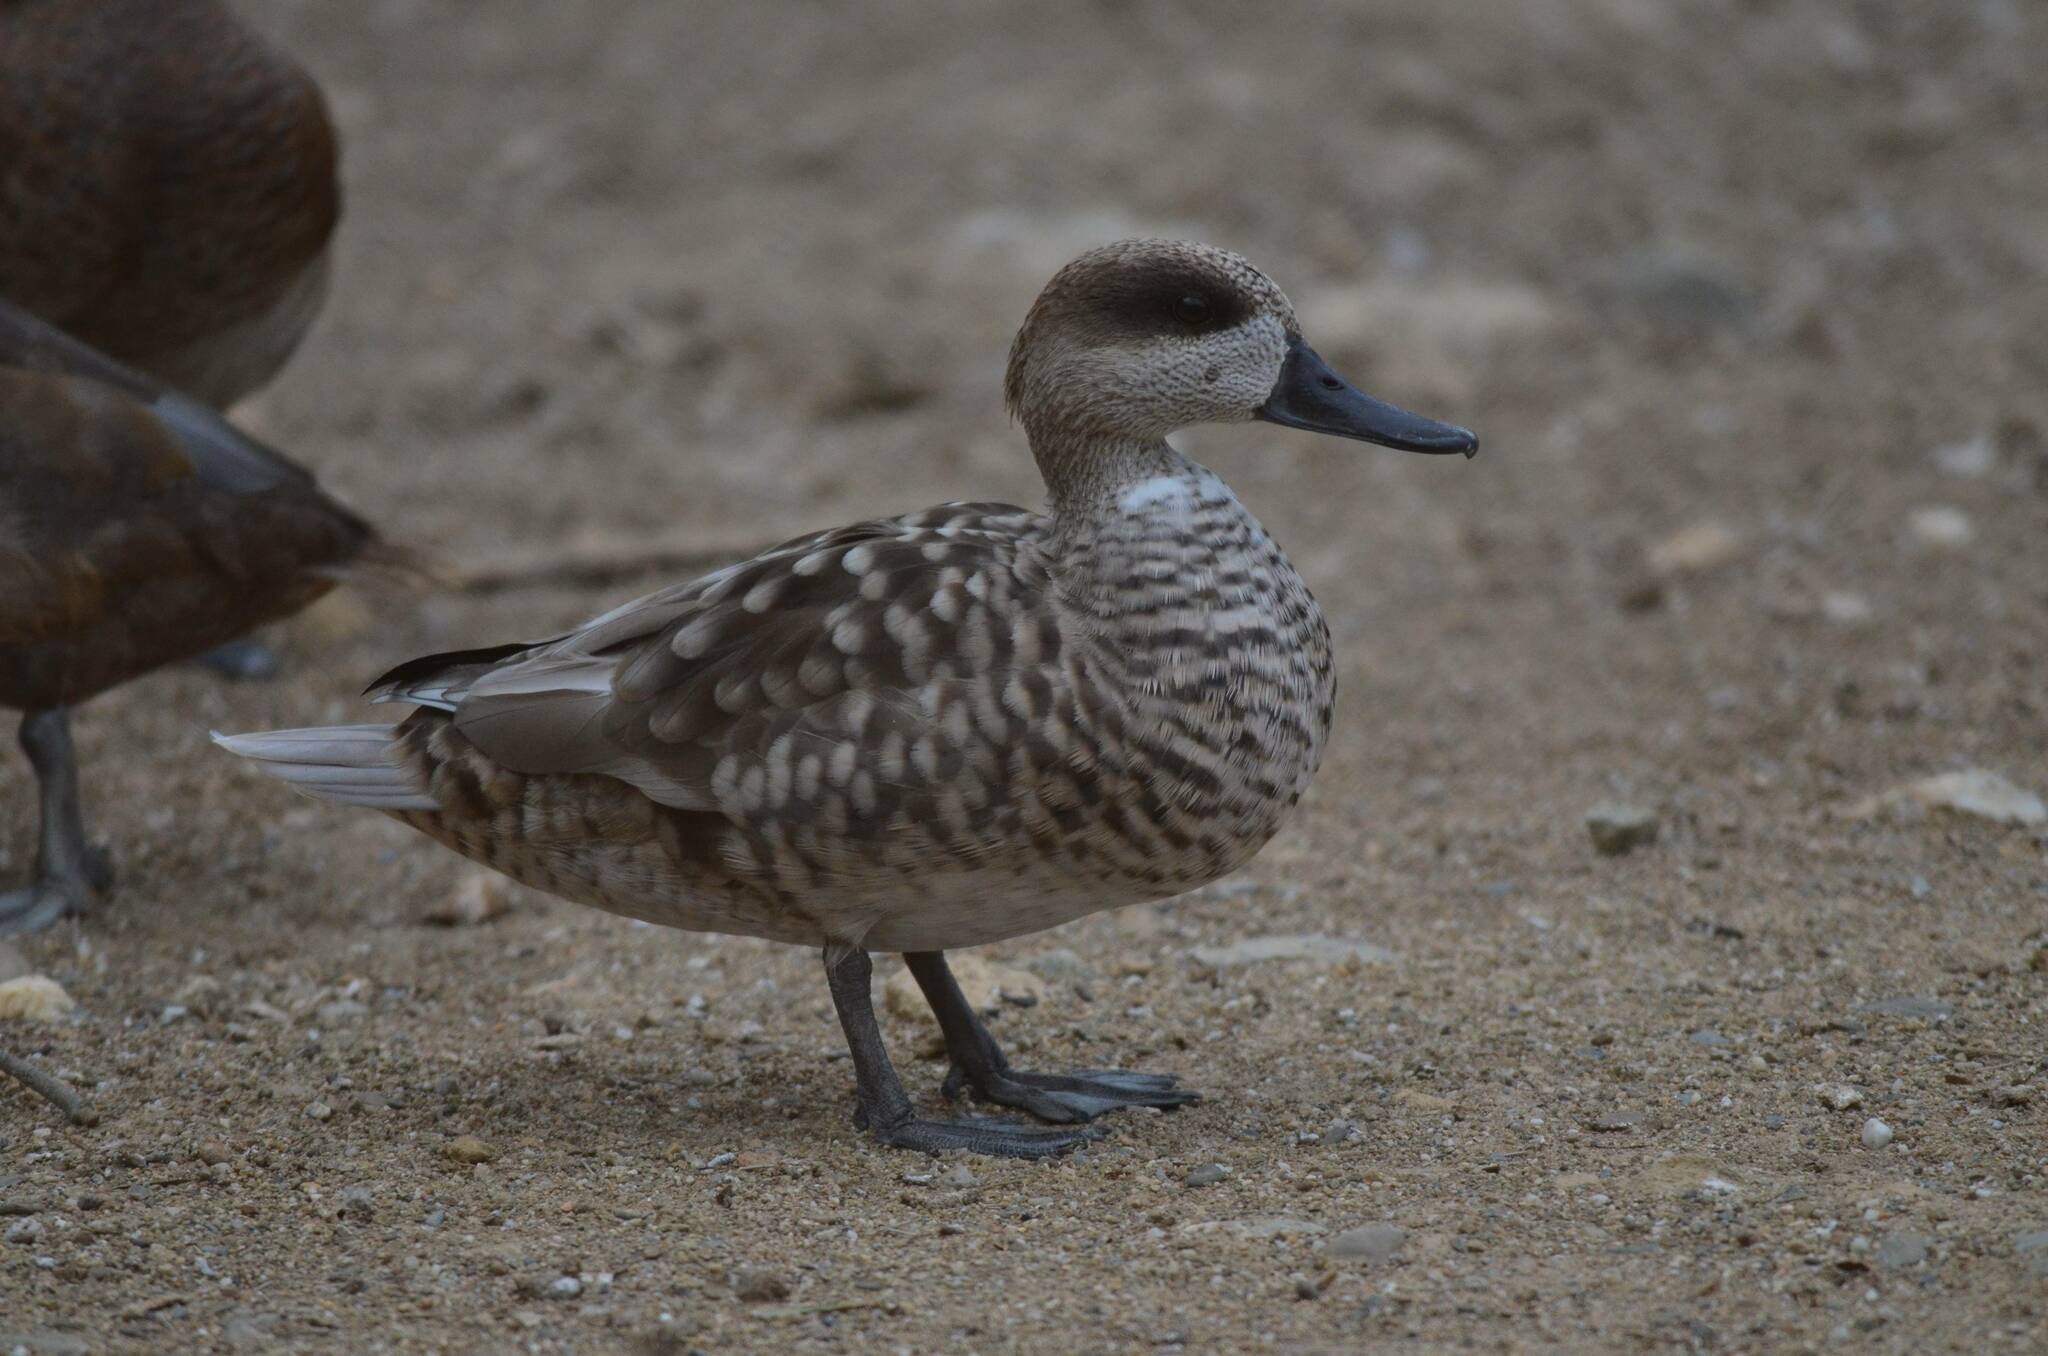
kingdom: Animalia
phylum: Chordata
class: Aves
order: Anseriformes
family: Anatidae
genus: Marmaronetta
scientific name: Marmaronetta angustirostris
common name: Marbled duck
